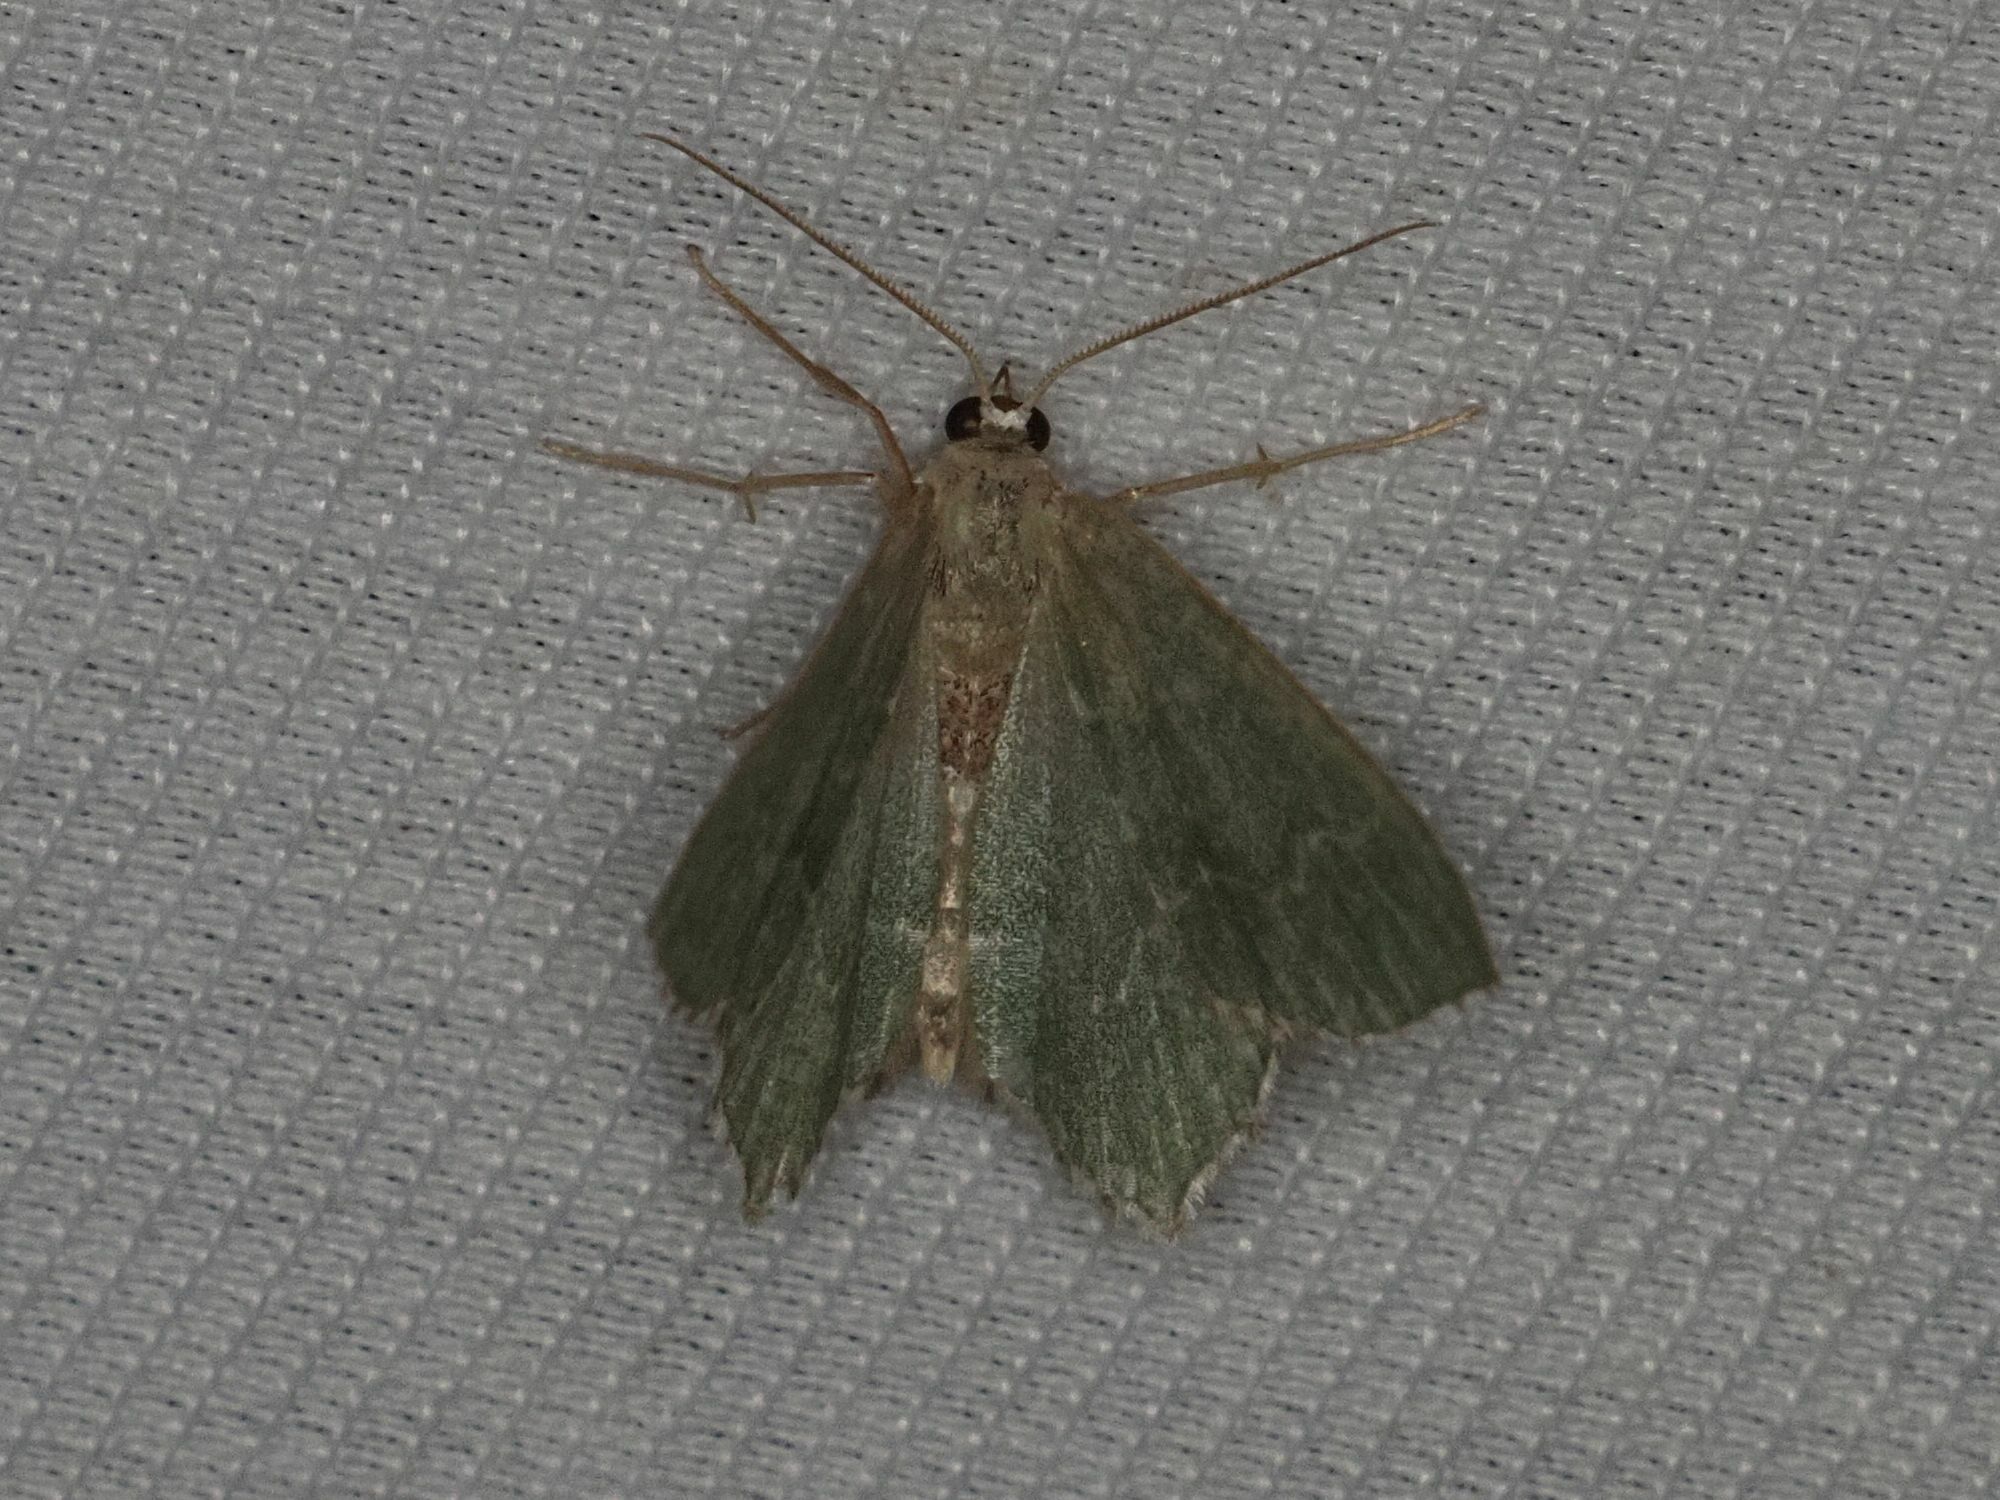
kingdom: Animalia
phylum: Arthropoda
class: Insecta
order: Lepidoptera
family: Geometridae
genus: Hemithea
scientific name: Hemithea aestivaria
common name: Common emerald
